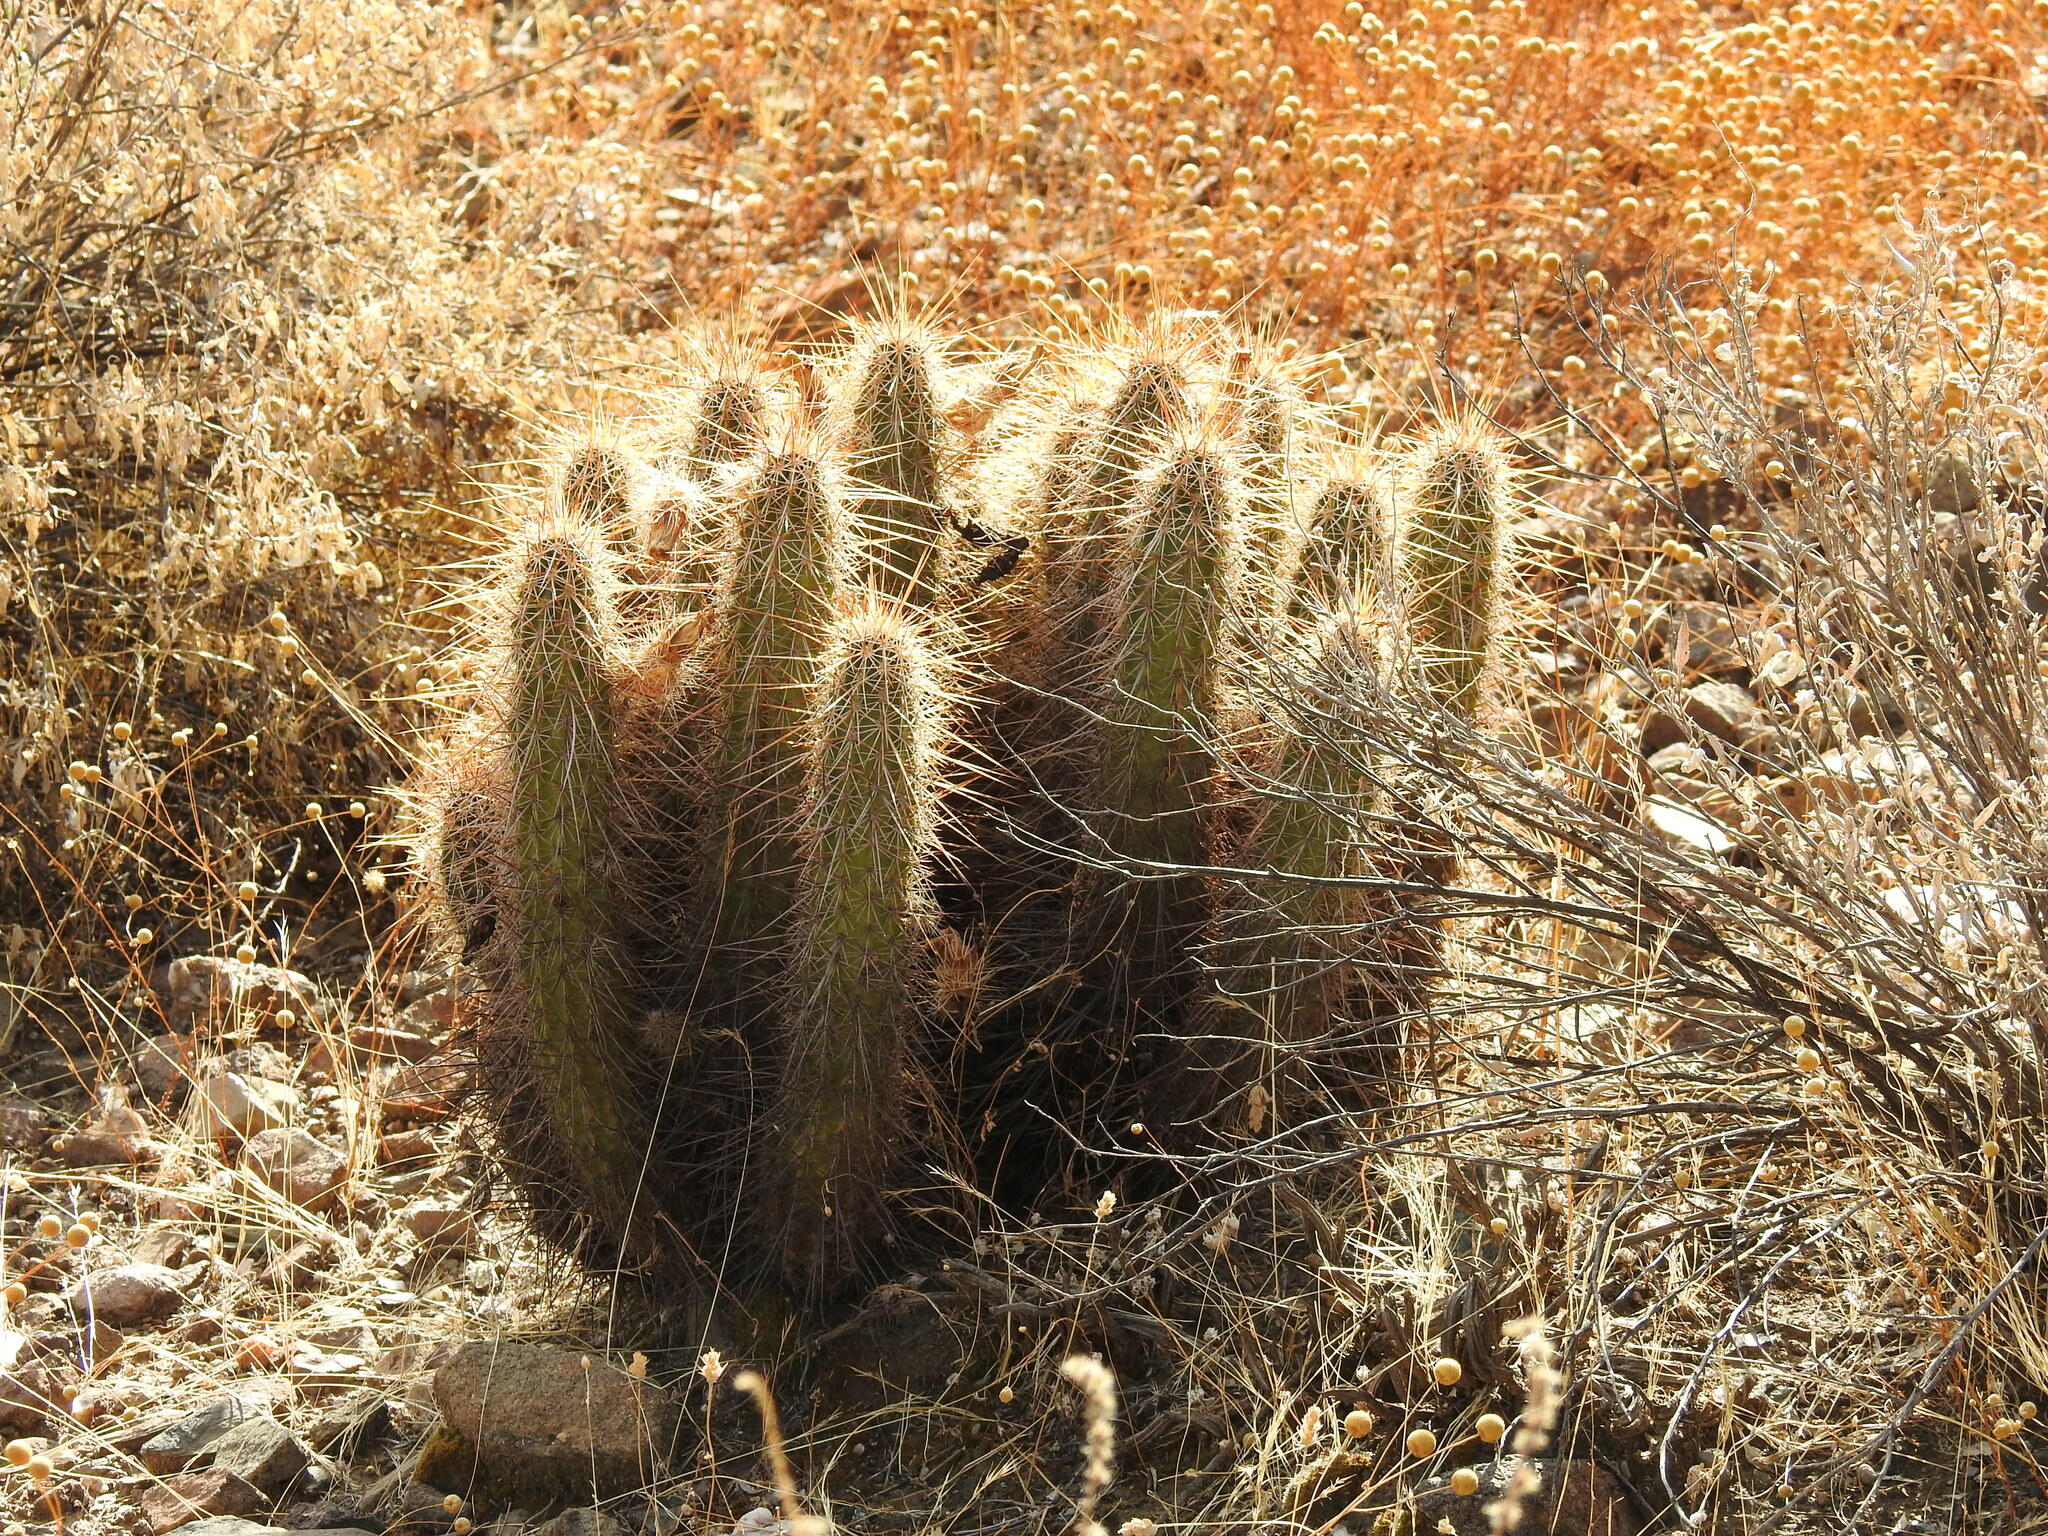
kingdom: Plantae
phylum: Tracheophyta
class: Magnoliopsida
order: Caryophyllales
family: Cactaceae
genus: Echinocereus
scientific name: Echinocereus engelmannii
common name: Engelmann's hedgehog cactus
